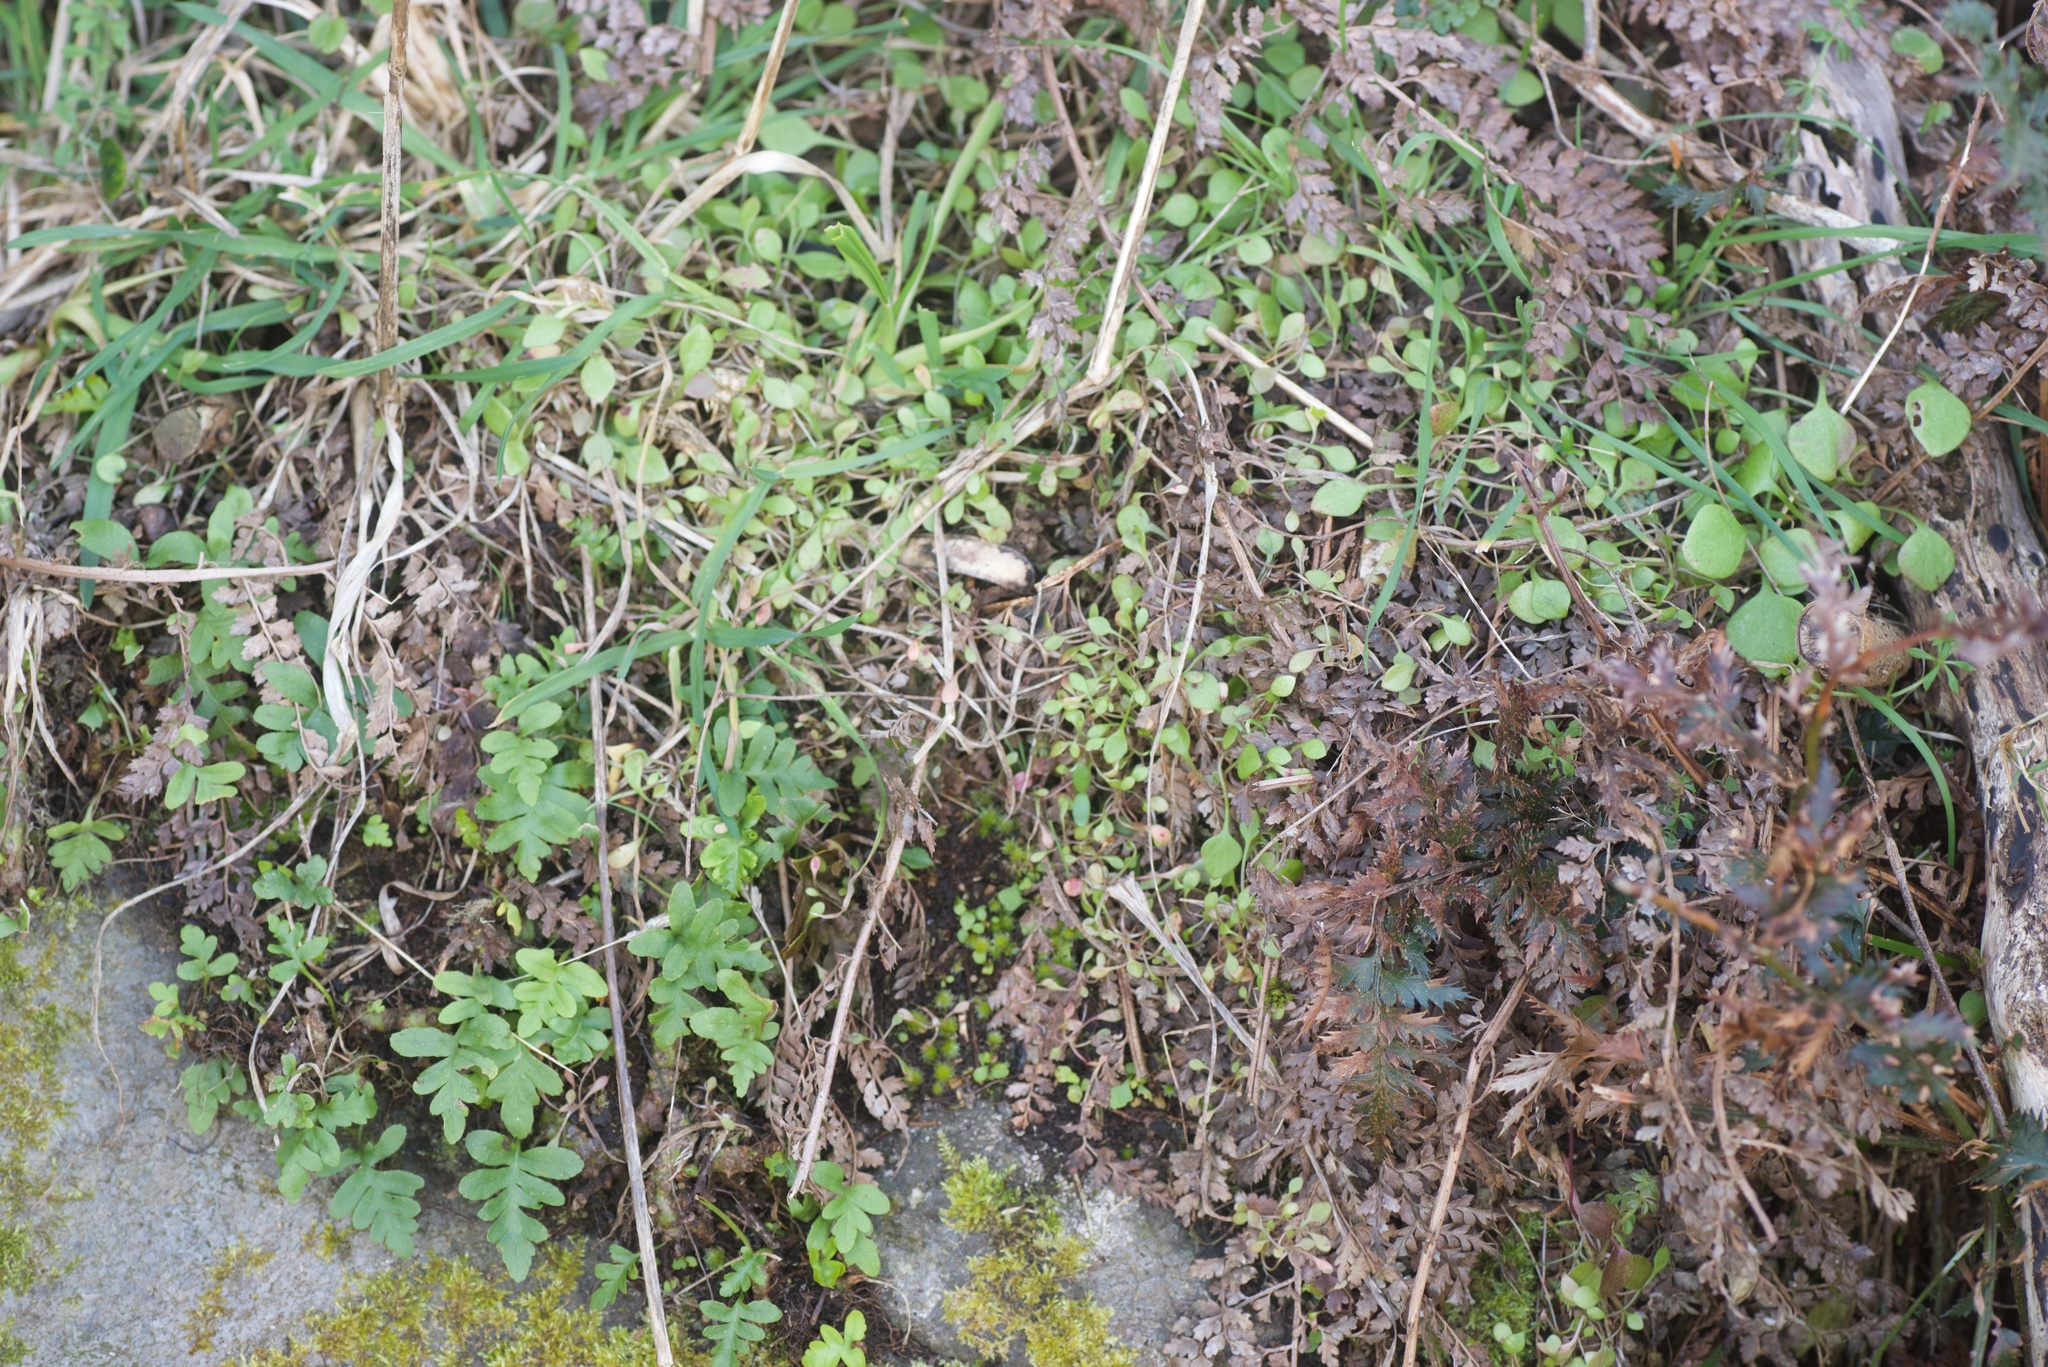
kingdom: Plantae
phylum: Tracheophyta
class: Magnoliopsida
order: Caryophyllales
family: Montiaceae
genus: Claytonia
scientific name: Claytonia perfoliata
